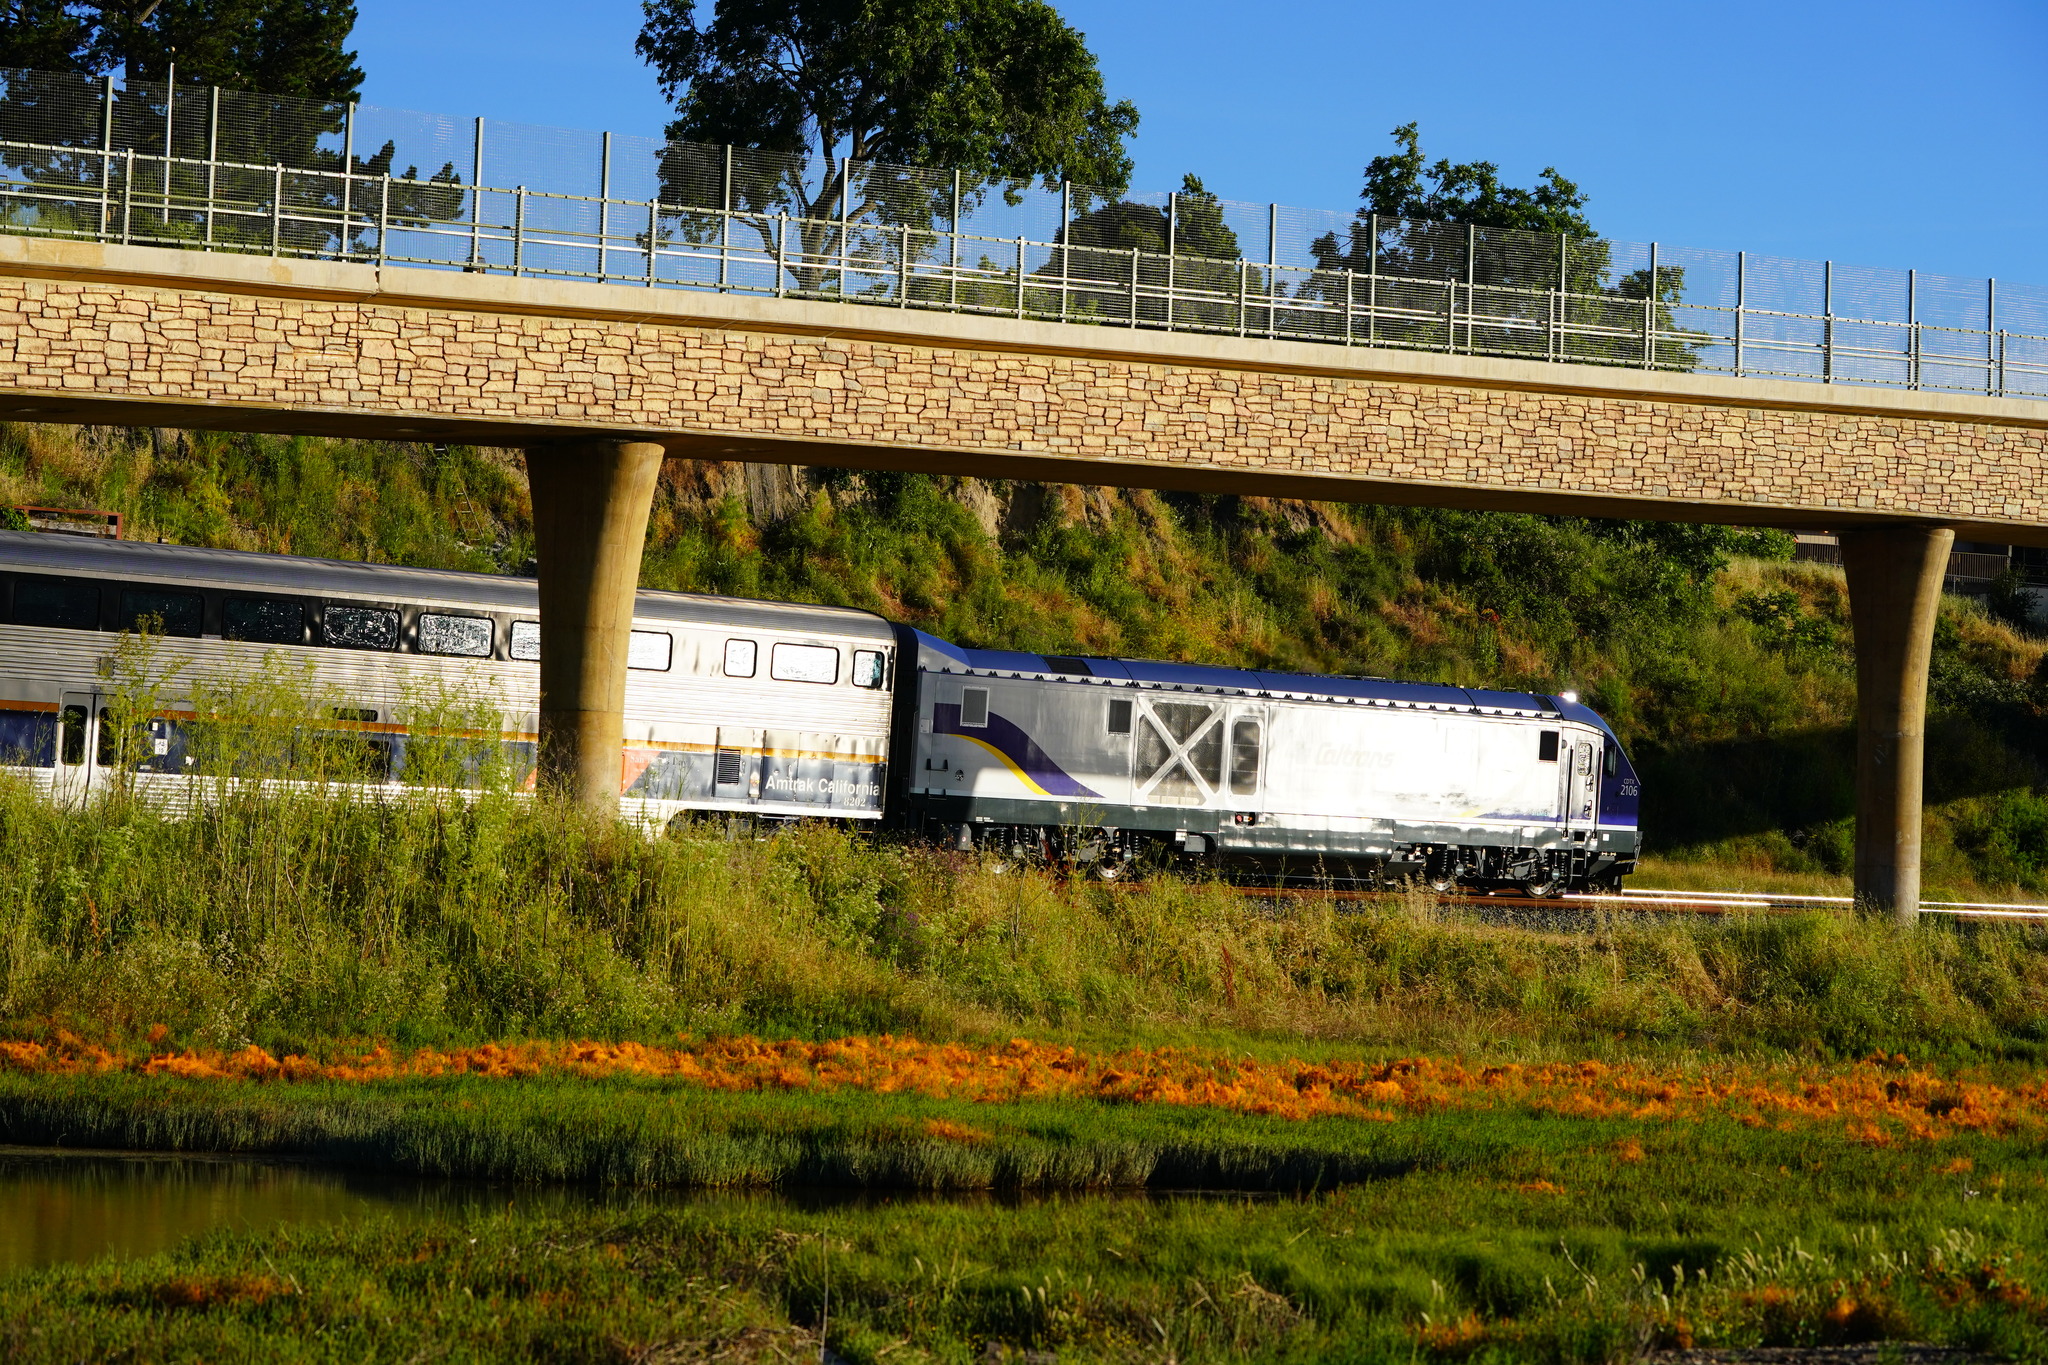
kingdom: Plantae
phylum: Tracheophyta
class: Magnoliopsida
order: Solanales
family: Convolvulaceae
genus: Cuscuta
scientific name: Cuscuta pacifica
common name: Large saltmarsh dodder
